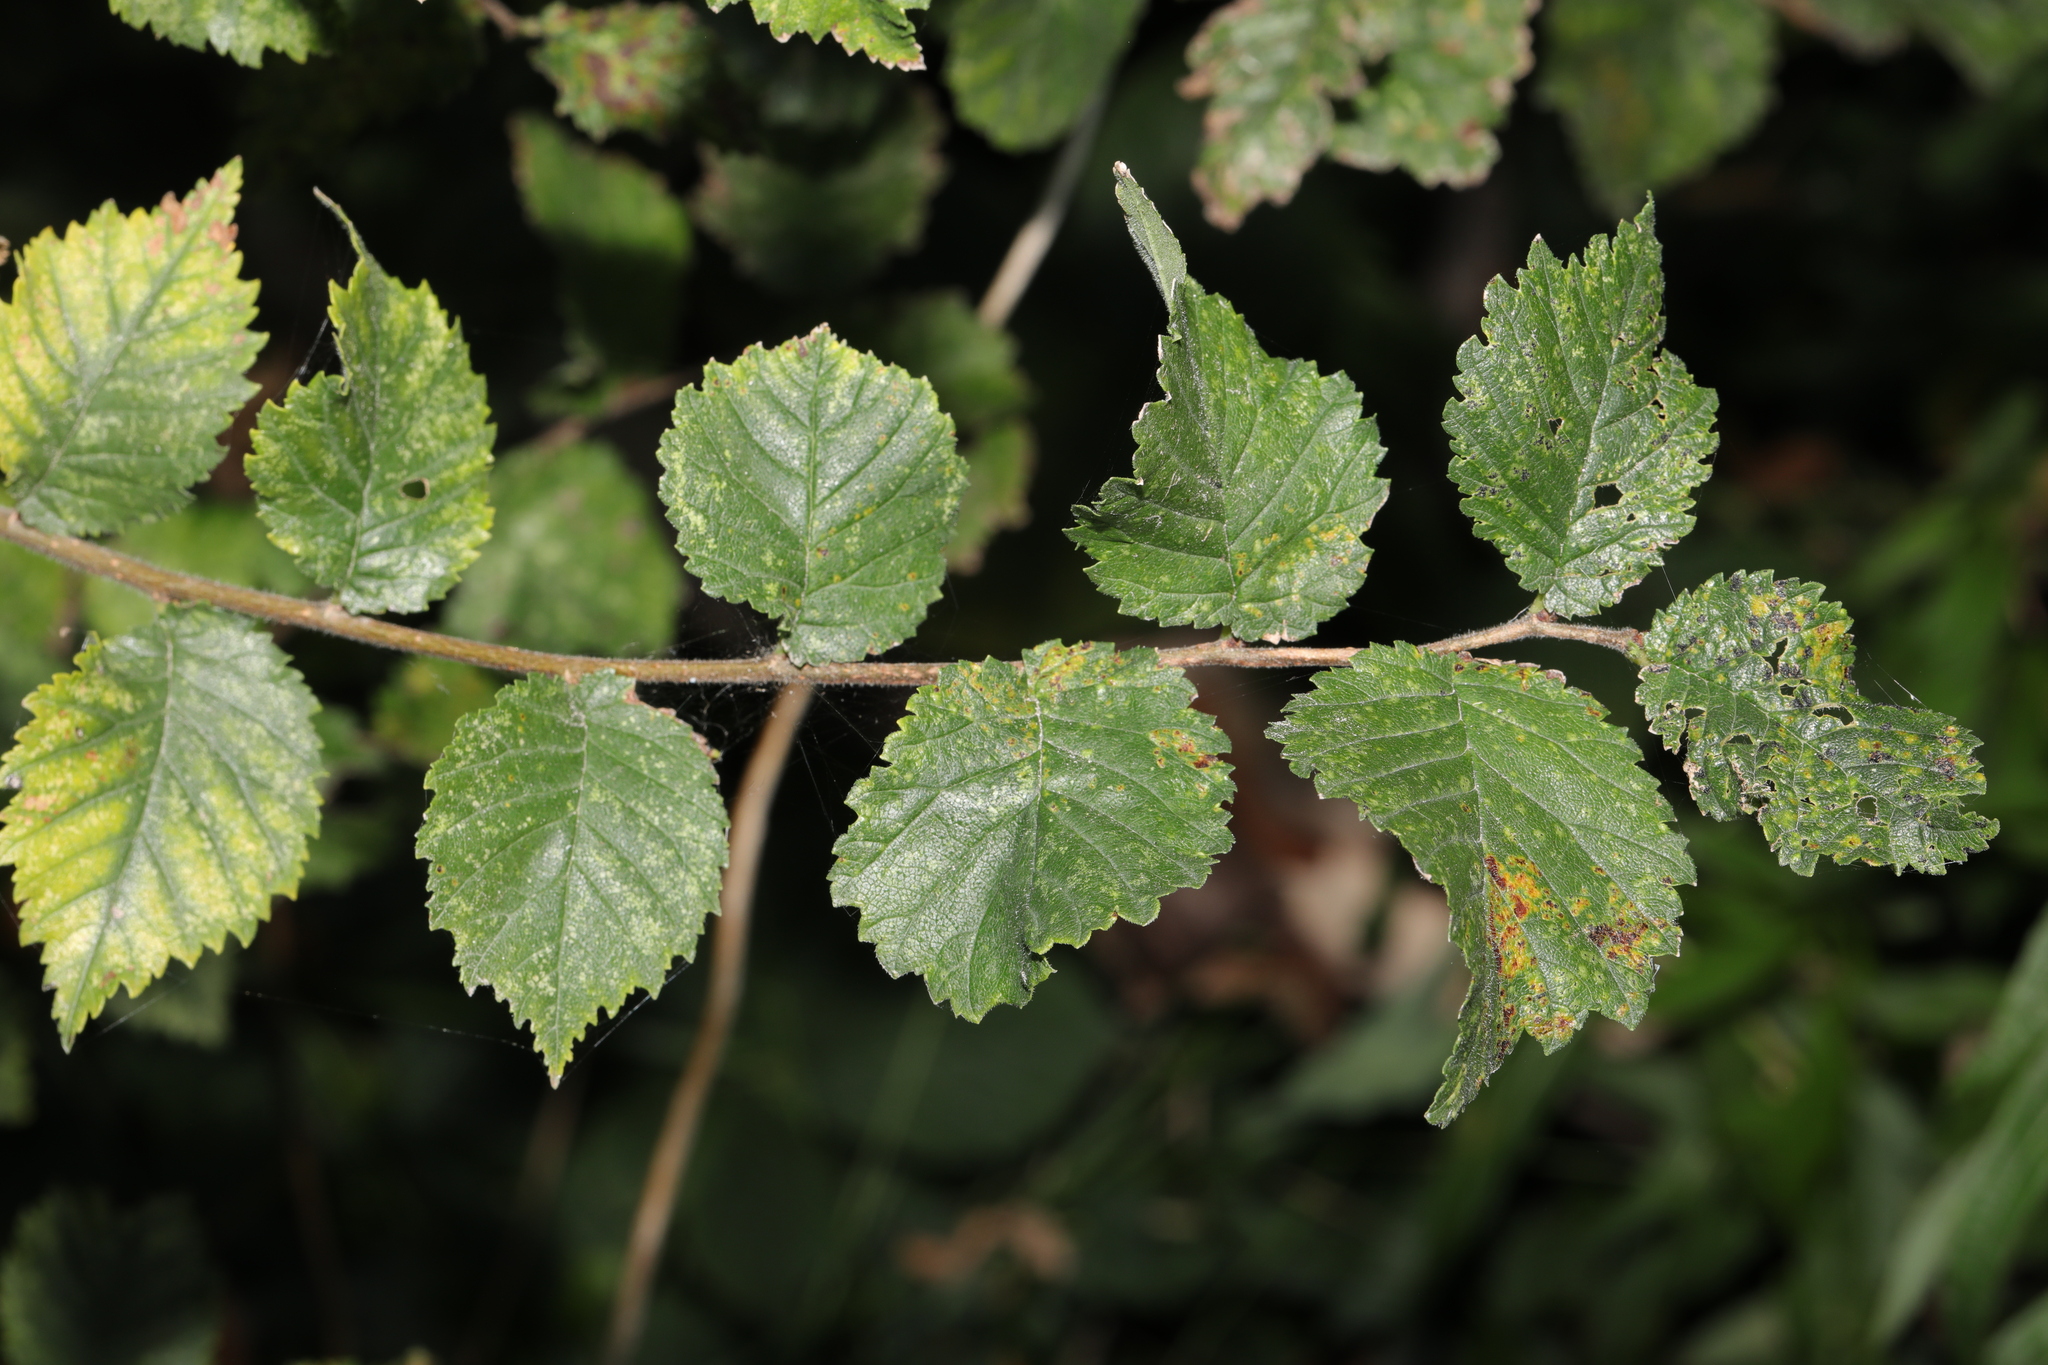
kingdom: Plantae
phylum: Tracheophyta
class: Magnoliopsida
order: Rosales
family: Ulmaceae
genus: Ulmus
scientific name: Ulmus minor
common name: Small-leaved elm
